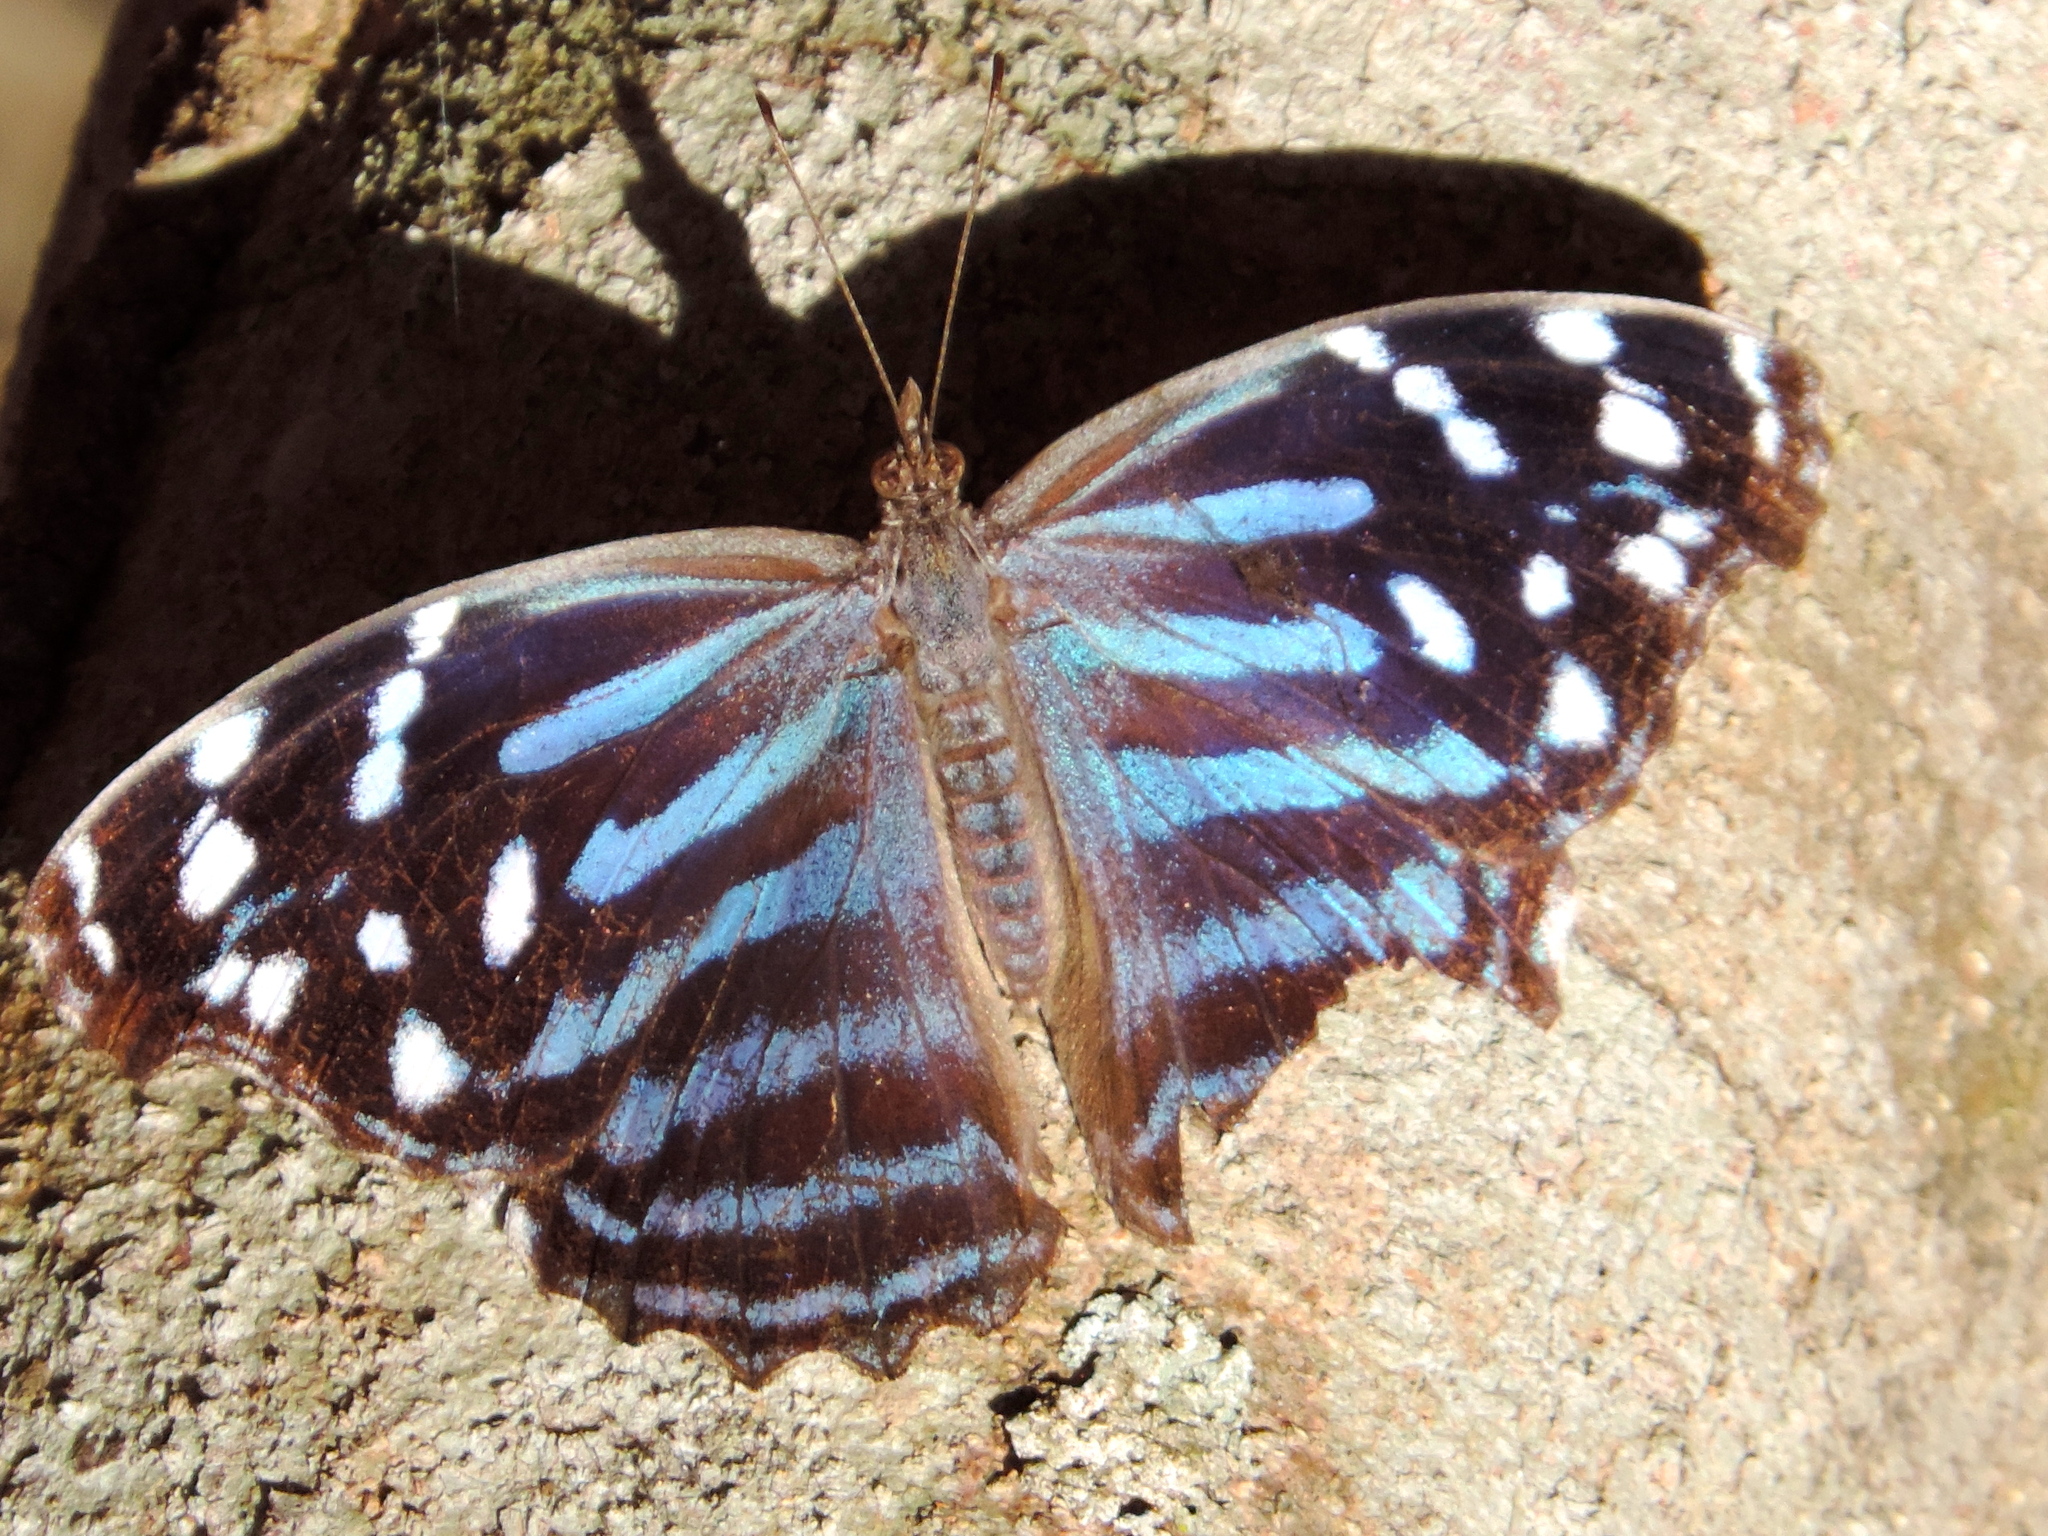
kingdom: Animalia
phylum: Arthropoda
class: Insecta
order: Lepidoptera
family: Nymphalidae
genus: Myscelia
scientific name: Myscelia
